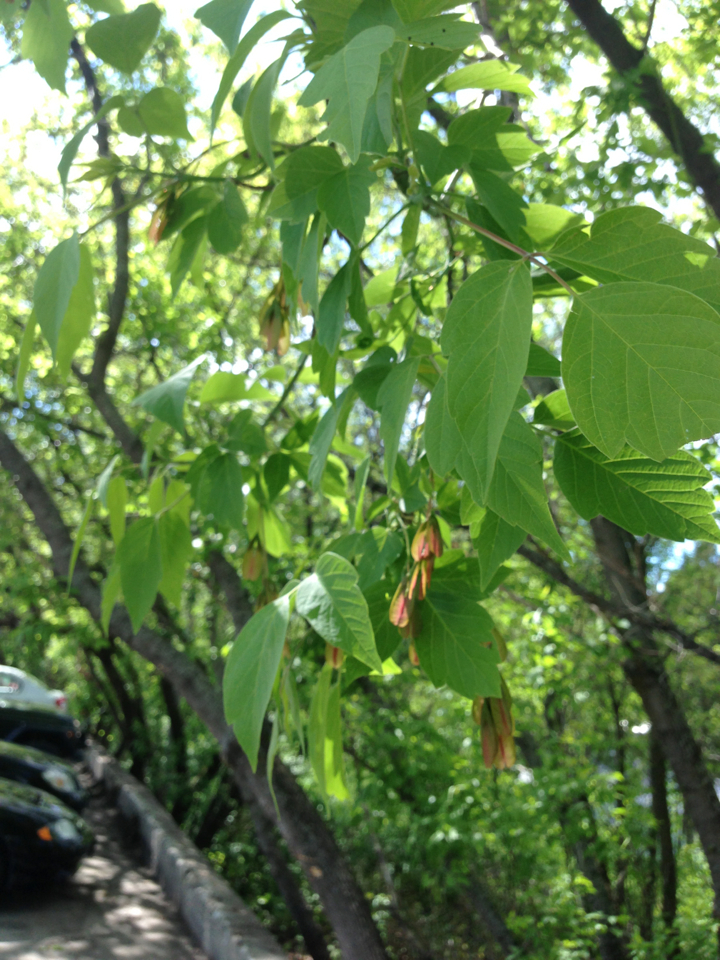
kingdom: Plantae
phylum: Tracheophyta
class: Magnoliopsida
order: Sapindales
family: Sapindaceae
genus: Acer
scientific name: Acer negundo
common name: Ashleaf maple
